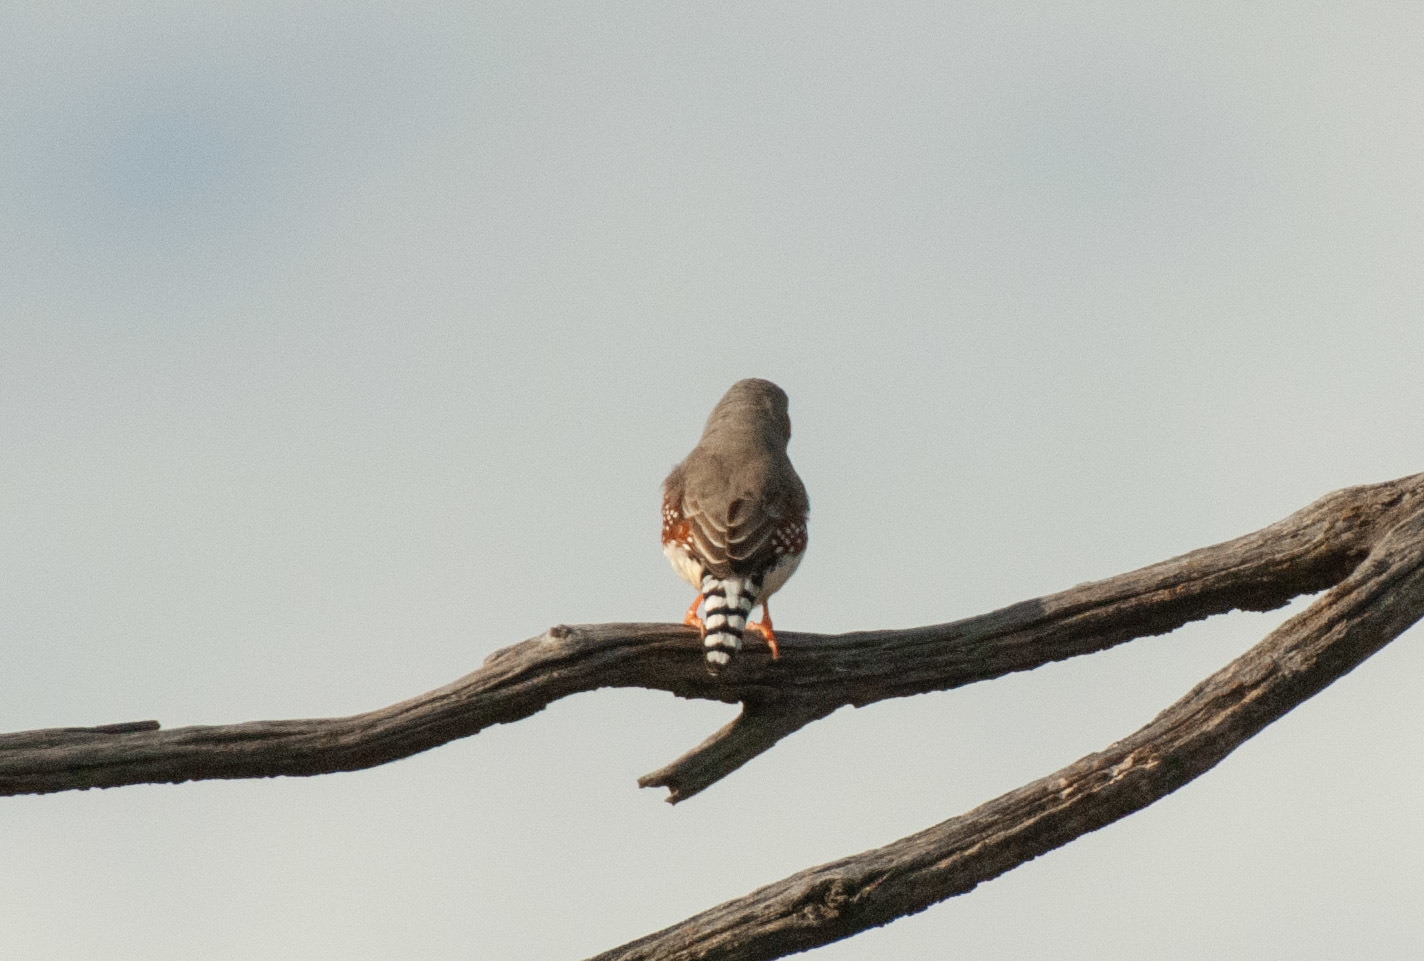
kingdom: Animalia
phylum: Chordata
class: Aves
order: Passeriformes
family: Estrildidae
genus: Taeniopygia
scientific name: Taeniopygia guttata
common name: Zebra finch
